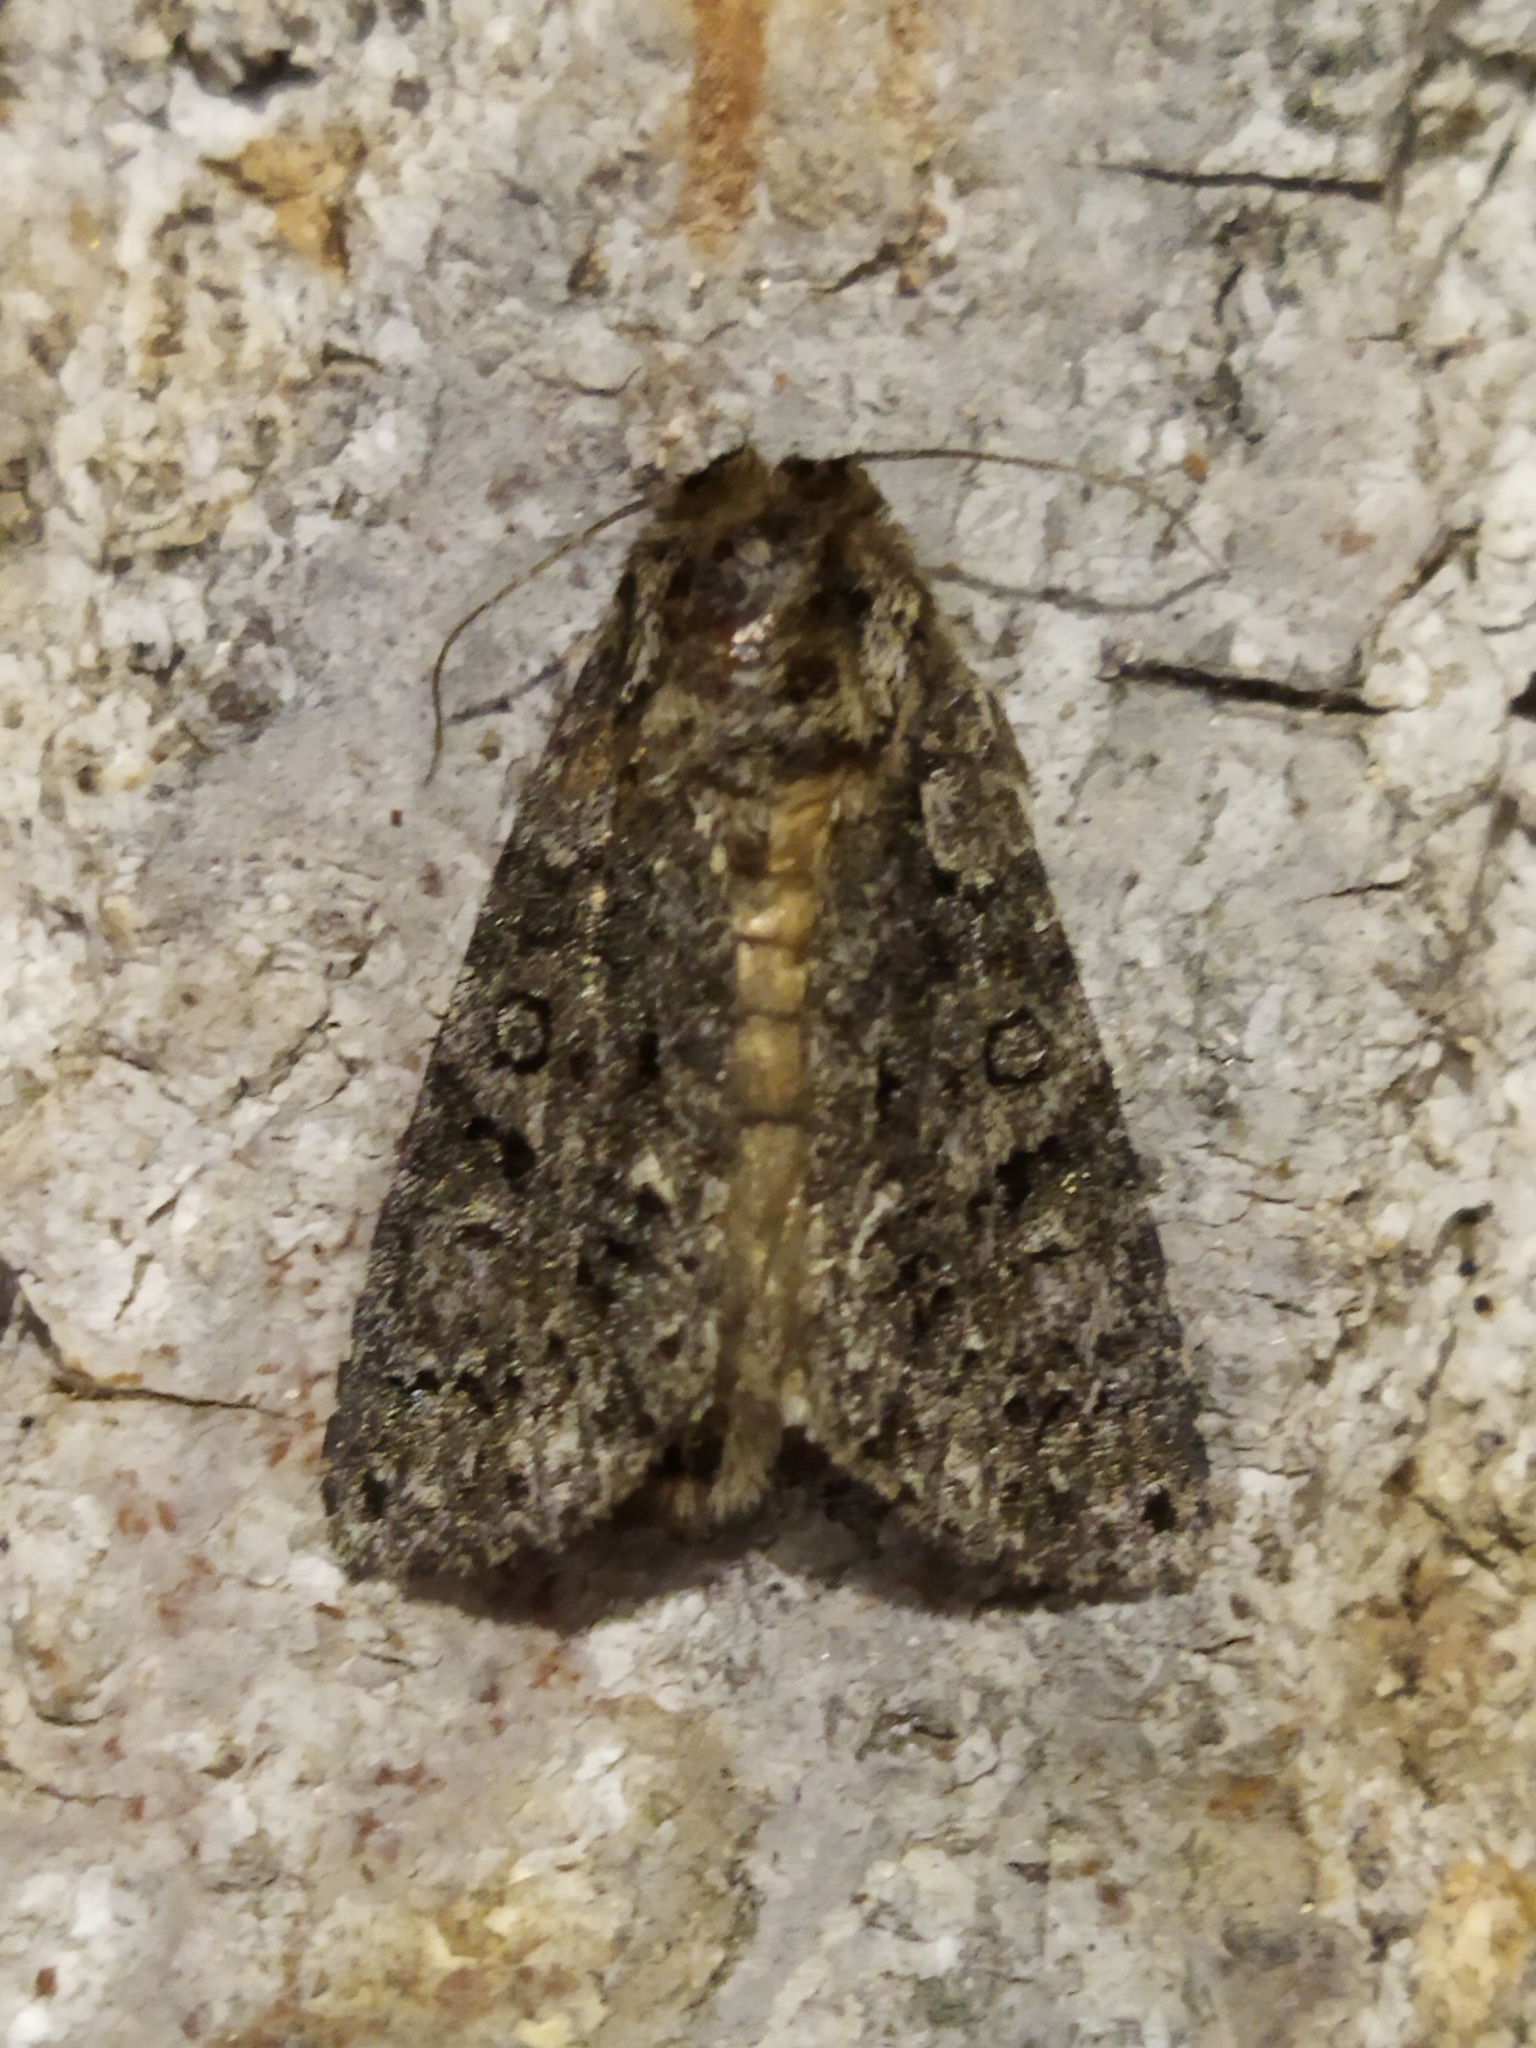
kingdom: Animalia
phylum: Arthropoda
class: Insecta
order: Lepidoptera
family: Noctuidae
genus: Acronicta
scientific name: Acronicta rumicis
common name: Knot grass
